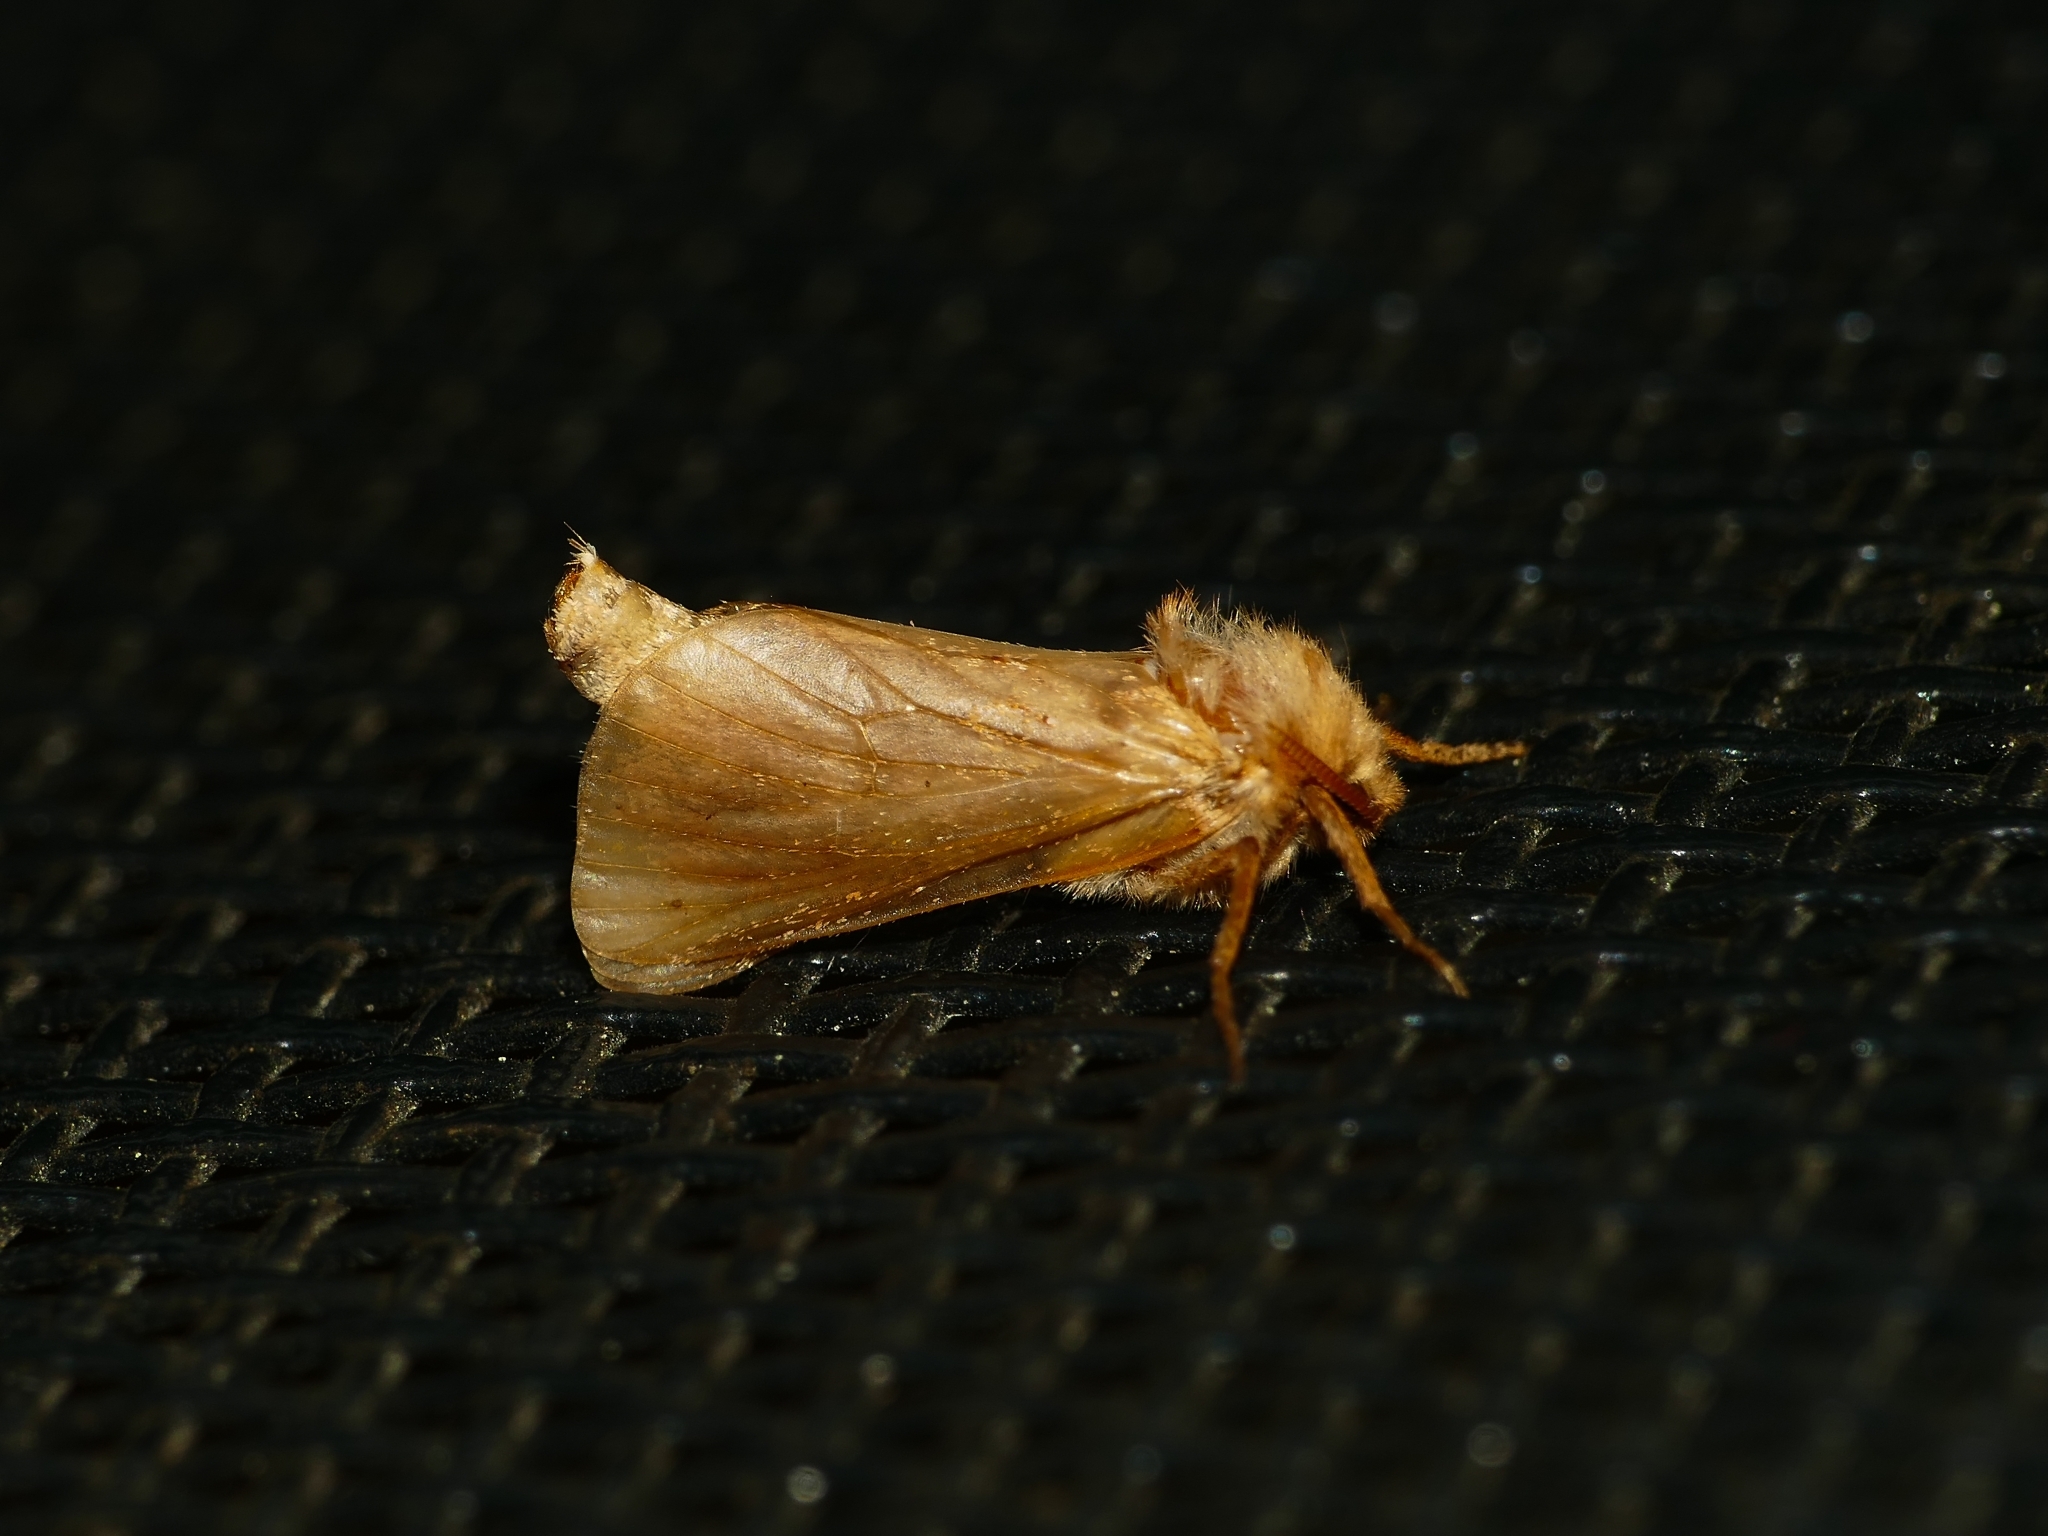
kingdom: Animalia
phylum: Arthropoda
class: Insecta
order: Lepidoptera
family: Hepialidae
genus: Triodia
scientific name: Triodia sylvina
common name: Orange swift
